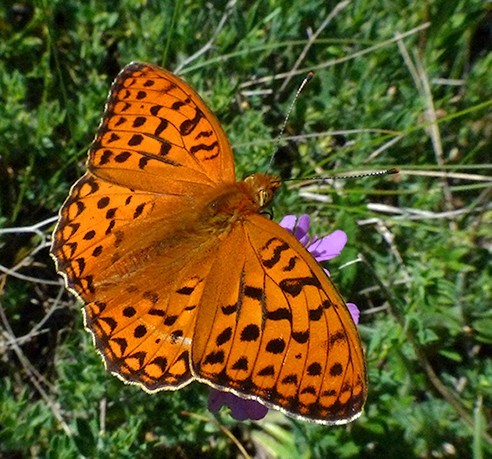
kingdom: Animalia
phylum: Arthropoda
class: Insecta
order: Lepidoptera
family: Nymphalidae
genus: Fabriciana
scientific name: Fabriciana adippe
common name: High brown fritillary
